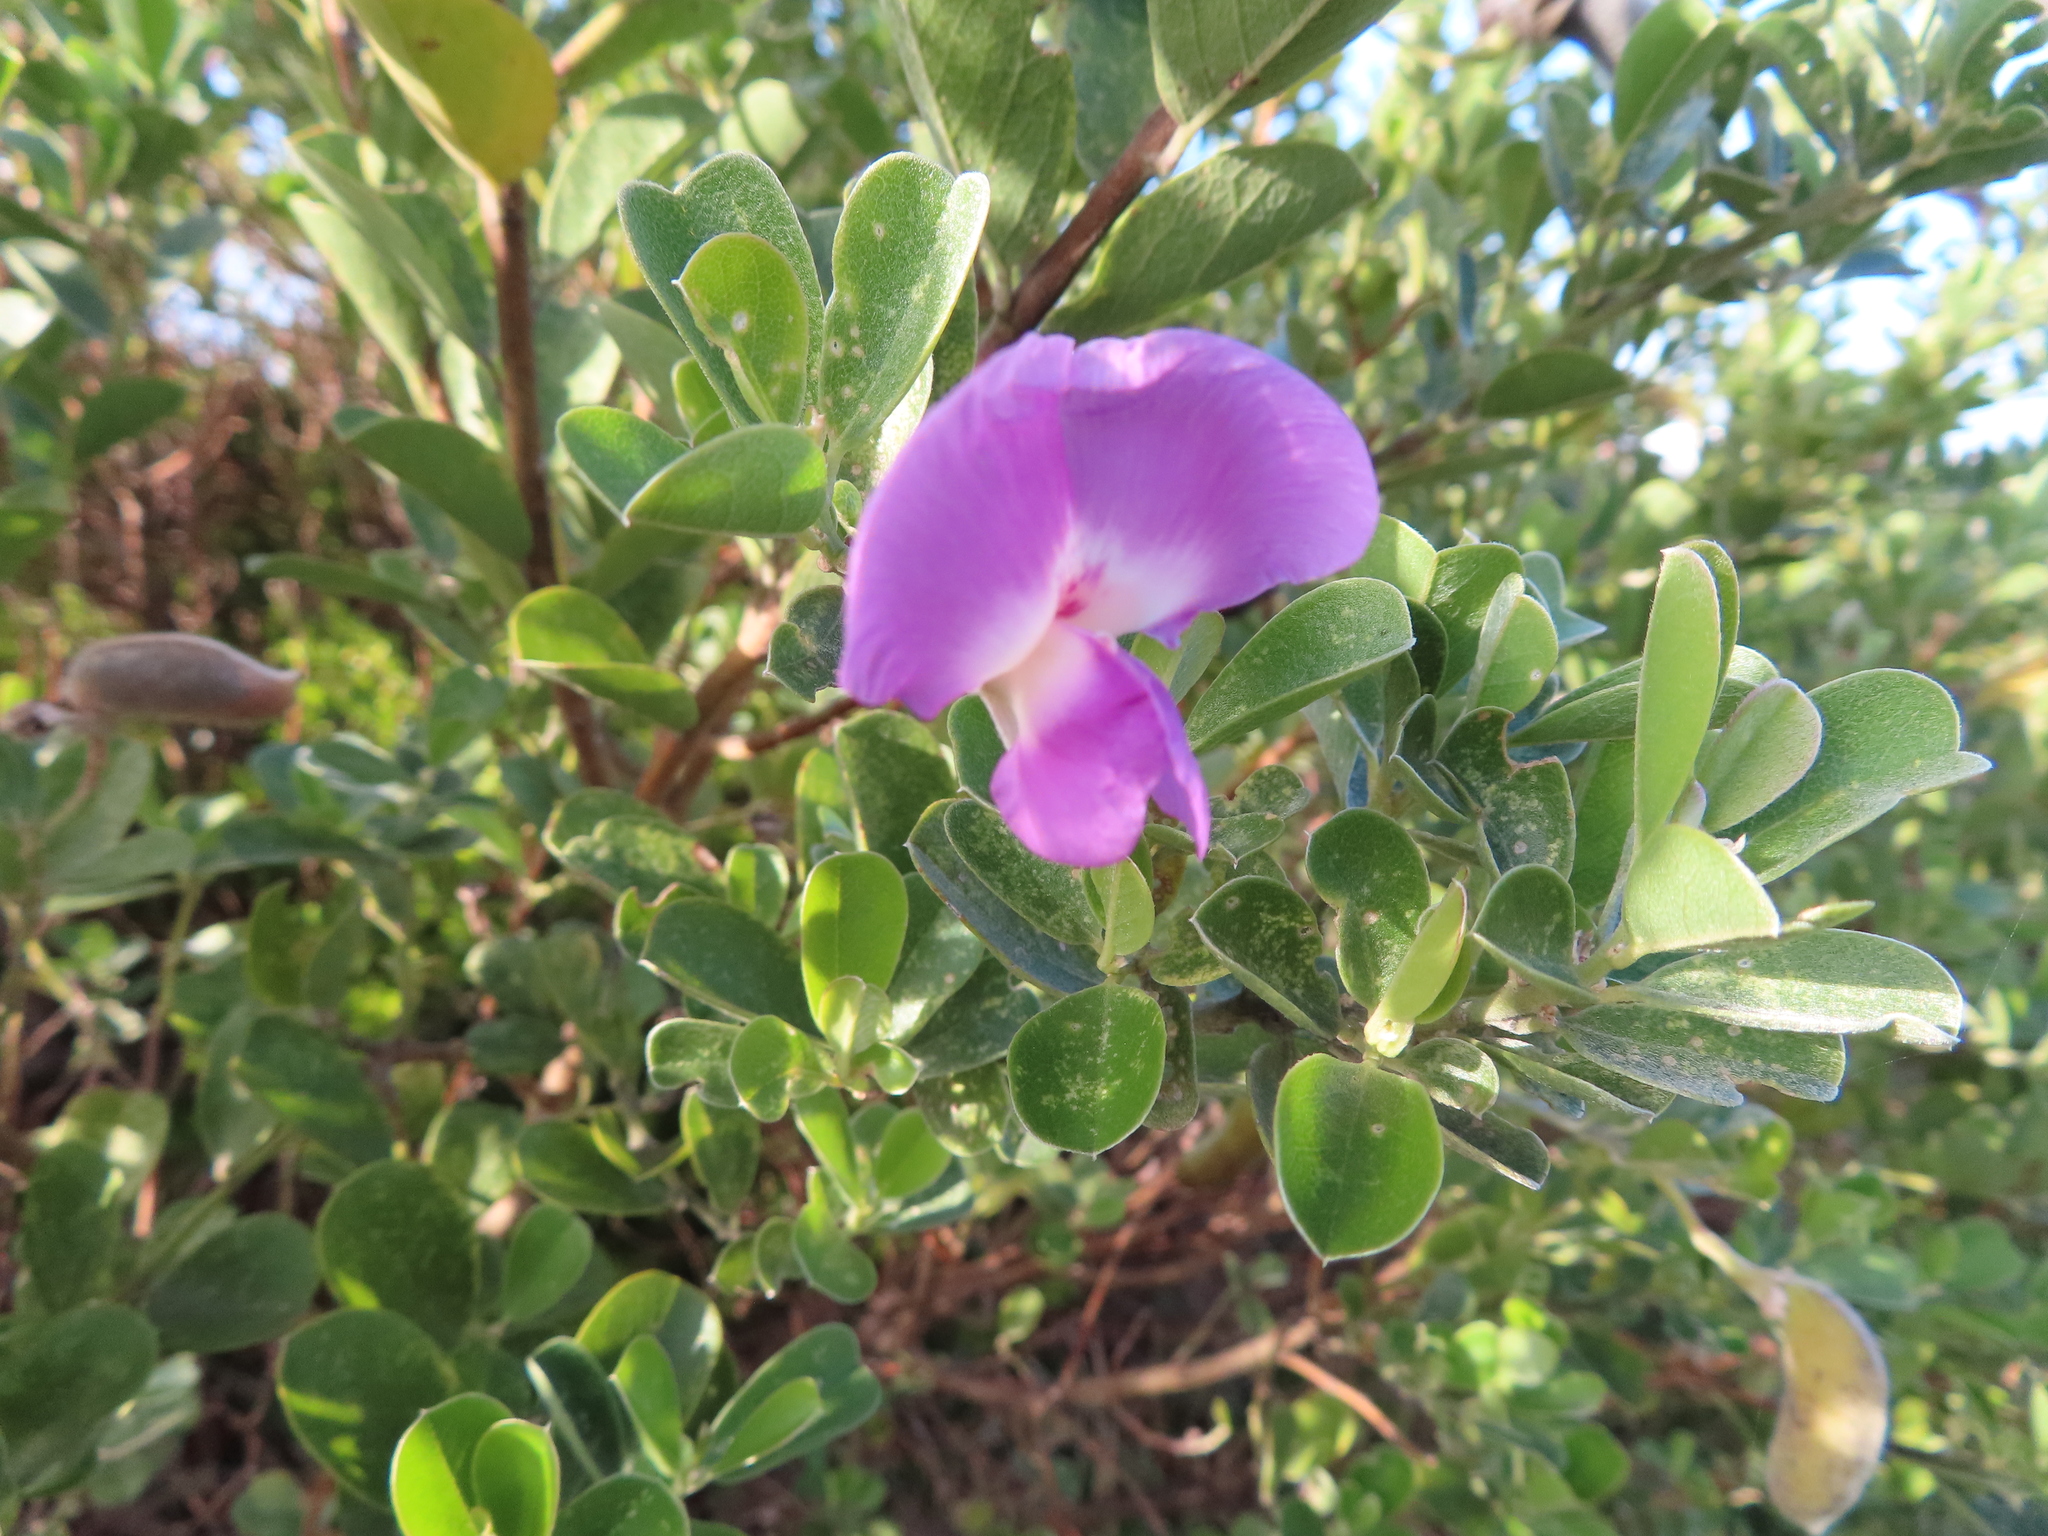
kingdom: Plantae
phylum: Tracheophyta
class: Magnoliopsida
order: Fabales
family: Fabaceae
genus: Podalyria
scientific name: Podalyria calyptrata
